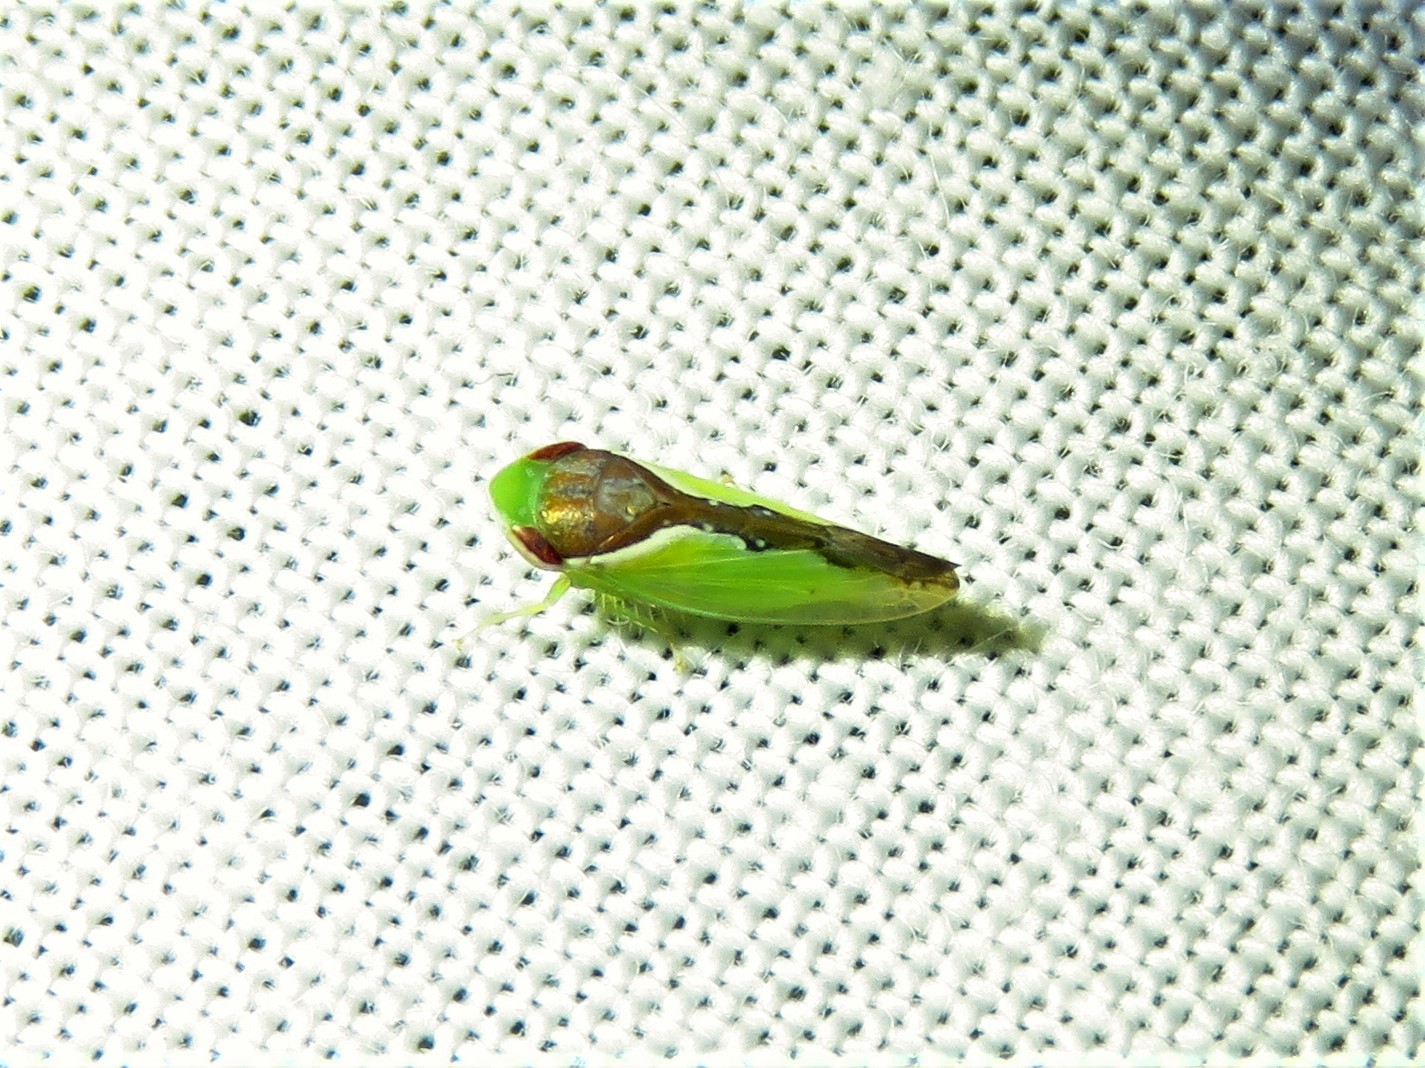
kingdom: Animalia
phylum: Arthropoda
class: Insecta
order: Hemiptera
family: Cicadellidae
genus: Omansobara ing
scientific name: Omansobara ing Omansobara palliolata
